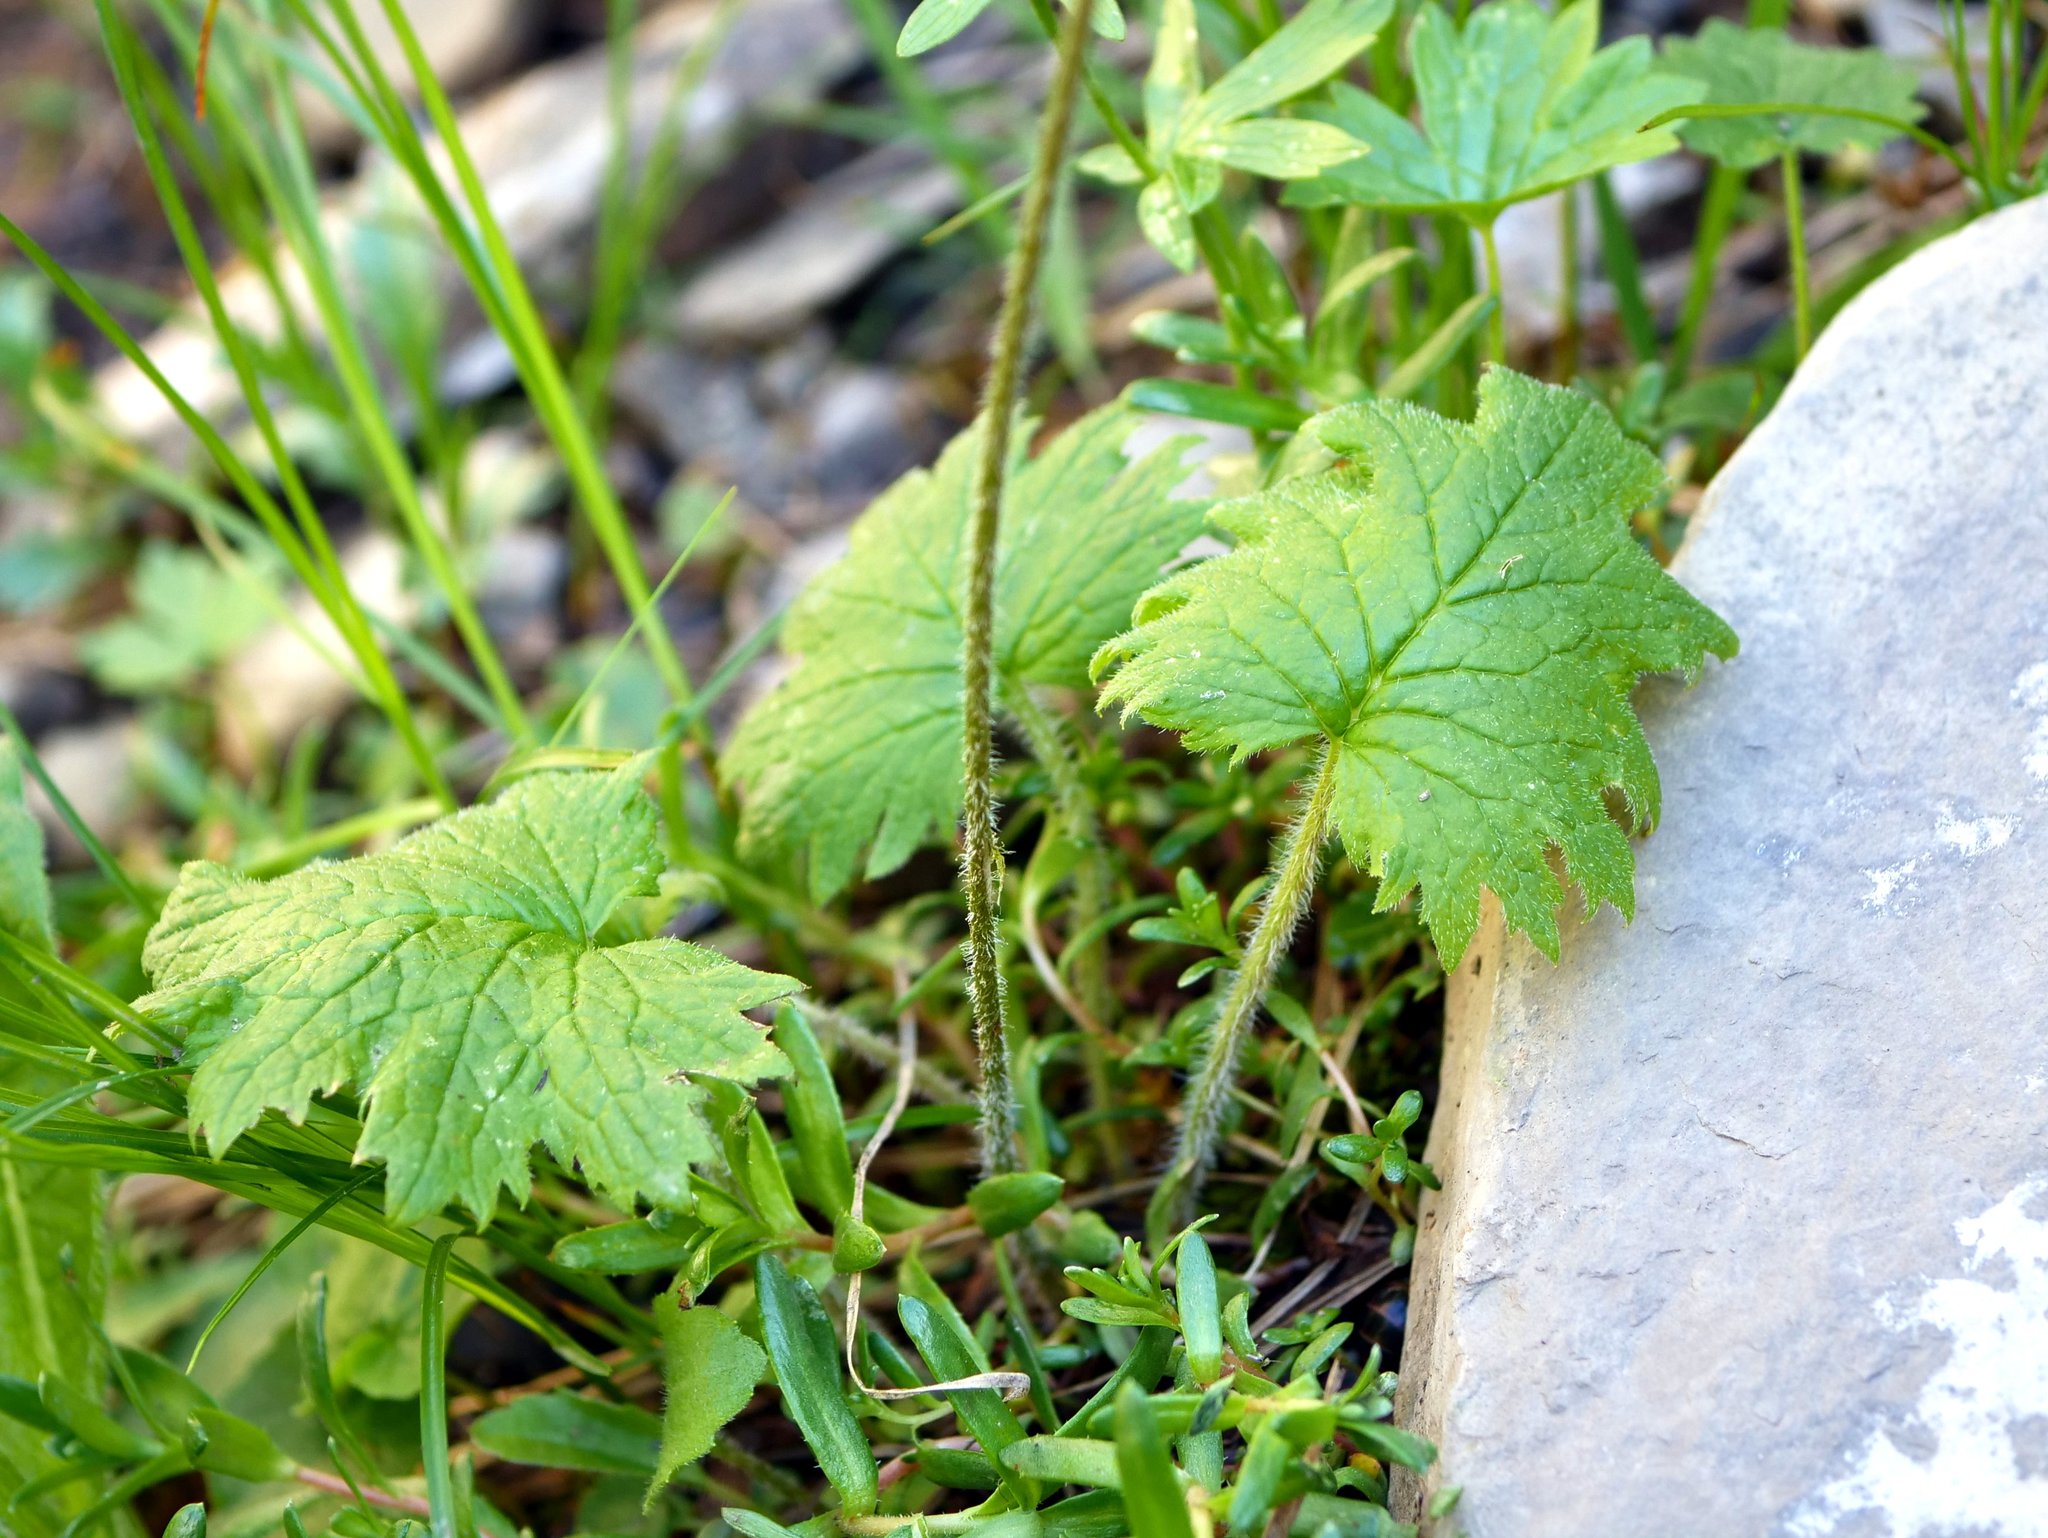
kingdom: Plantae
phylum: Tracheophyta
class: Magnoliopsida
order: Ericales
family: Primulaceae
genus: Primula
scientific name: Primula matthioli
